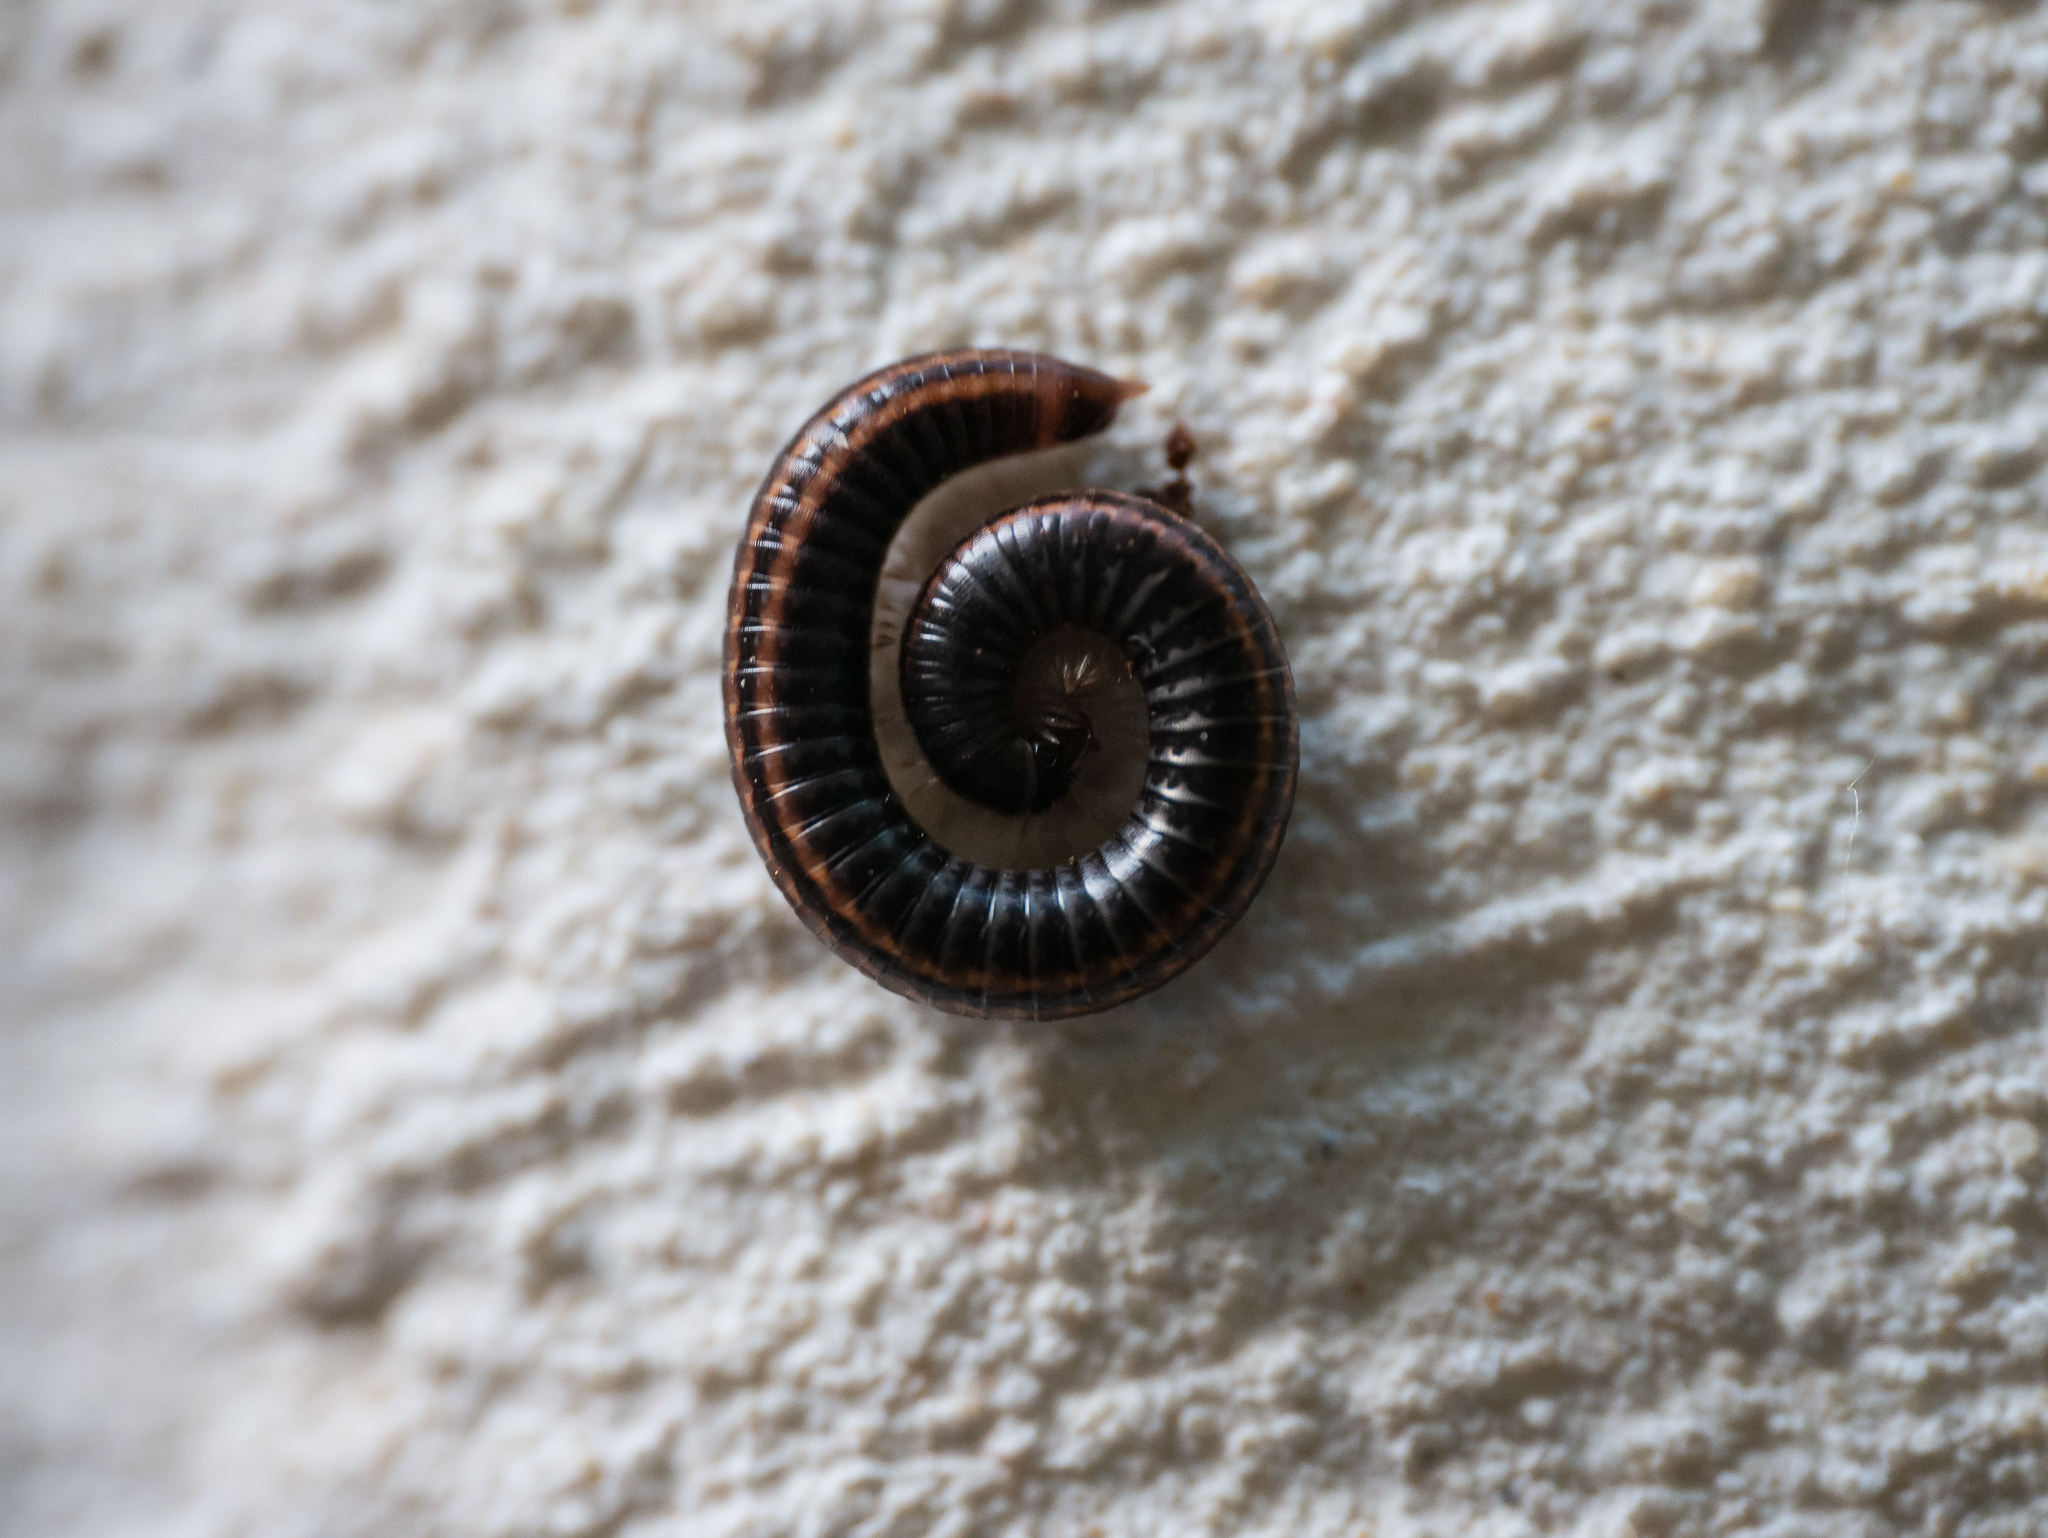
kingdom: Animalia
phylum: Arthropoda
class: Diplopoda
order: Julida
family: Julidae
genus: Ommatoiulus
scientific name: Ommatoiulus sabulosus
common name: Striped millipede
